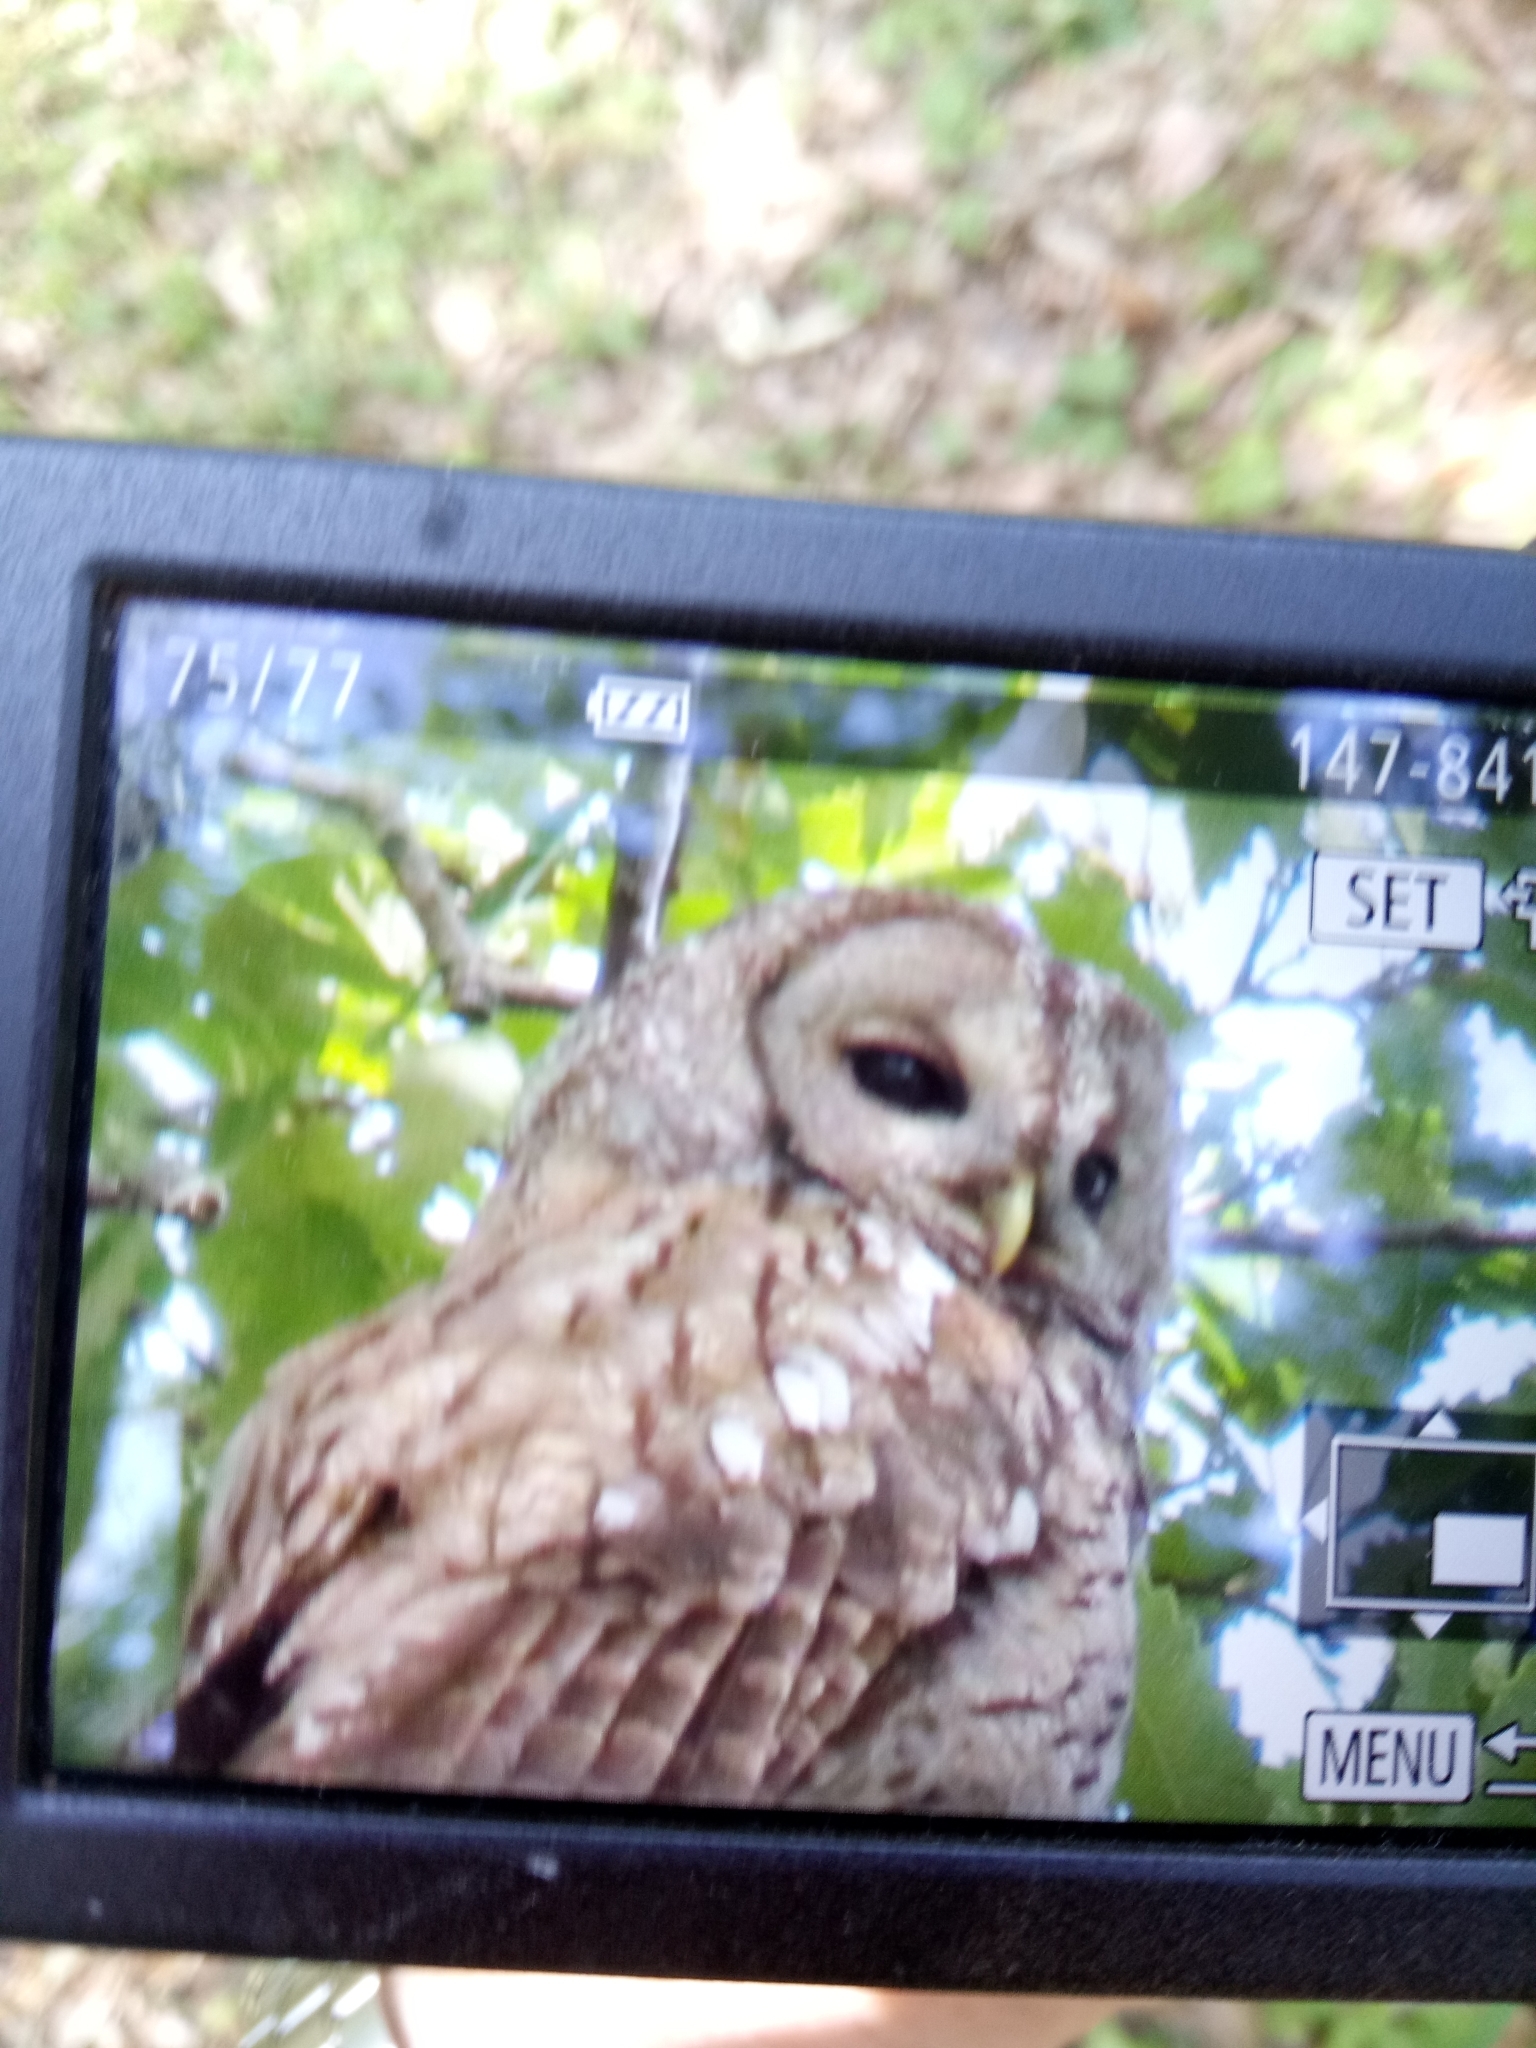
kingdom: Animalia
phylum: Chordata
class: Aves
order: Strigiformes
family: Strigidae
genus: Strix
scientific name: Strix aluco
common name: Tawny owl
